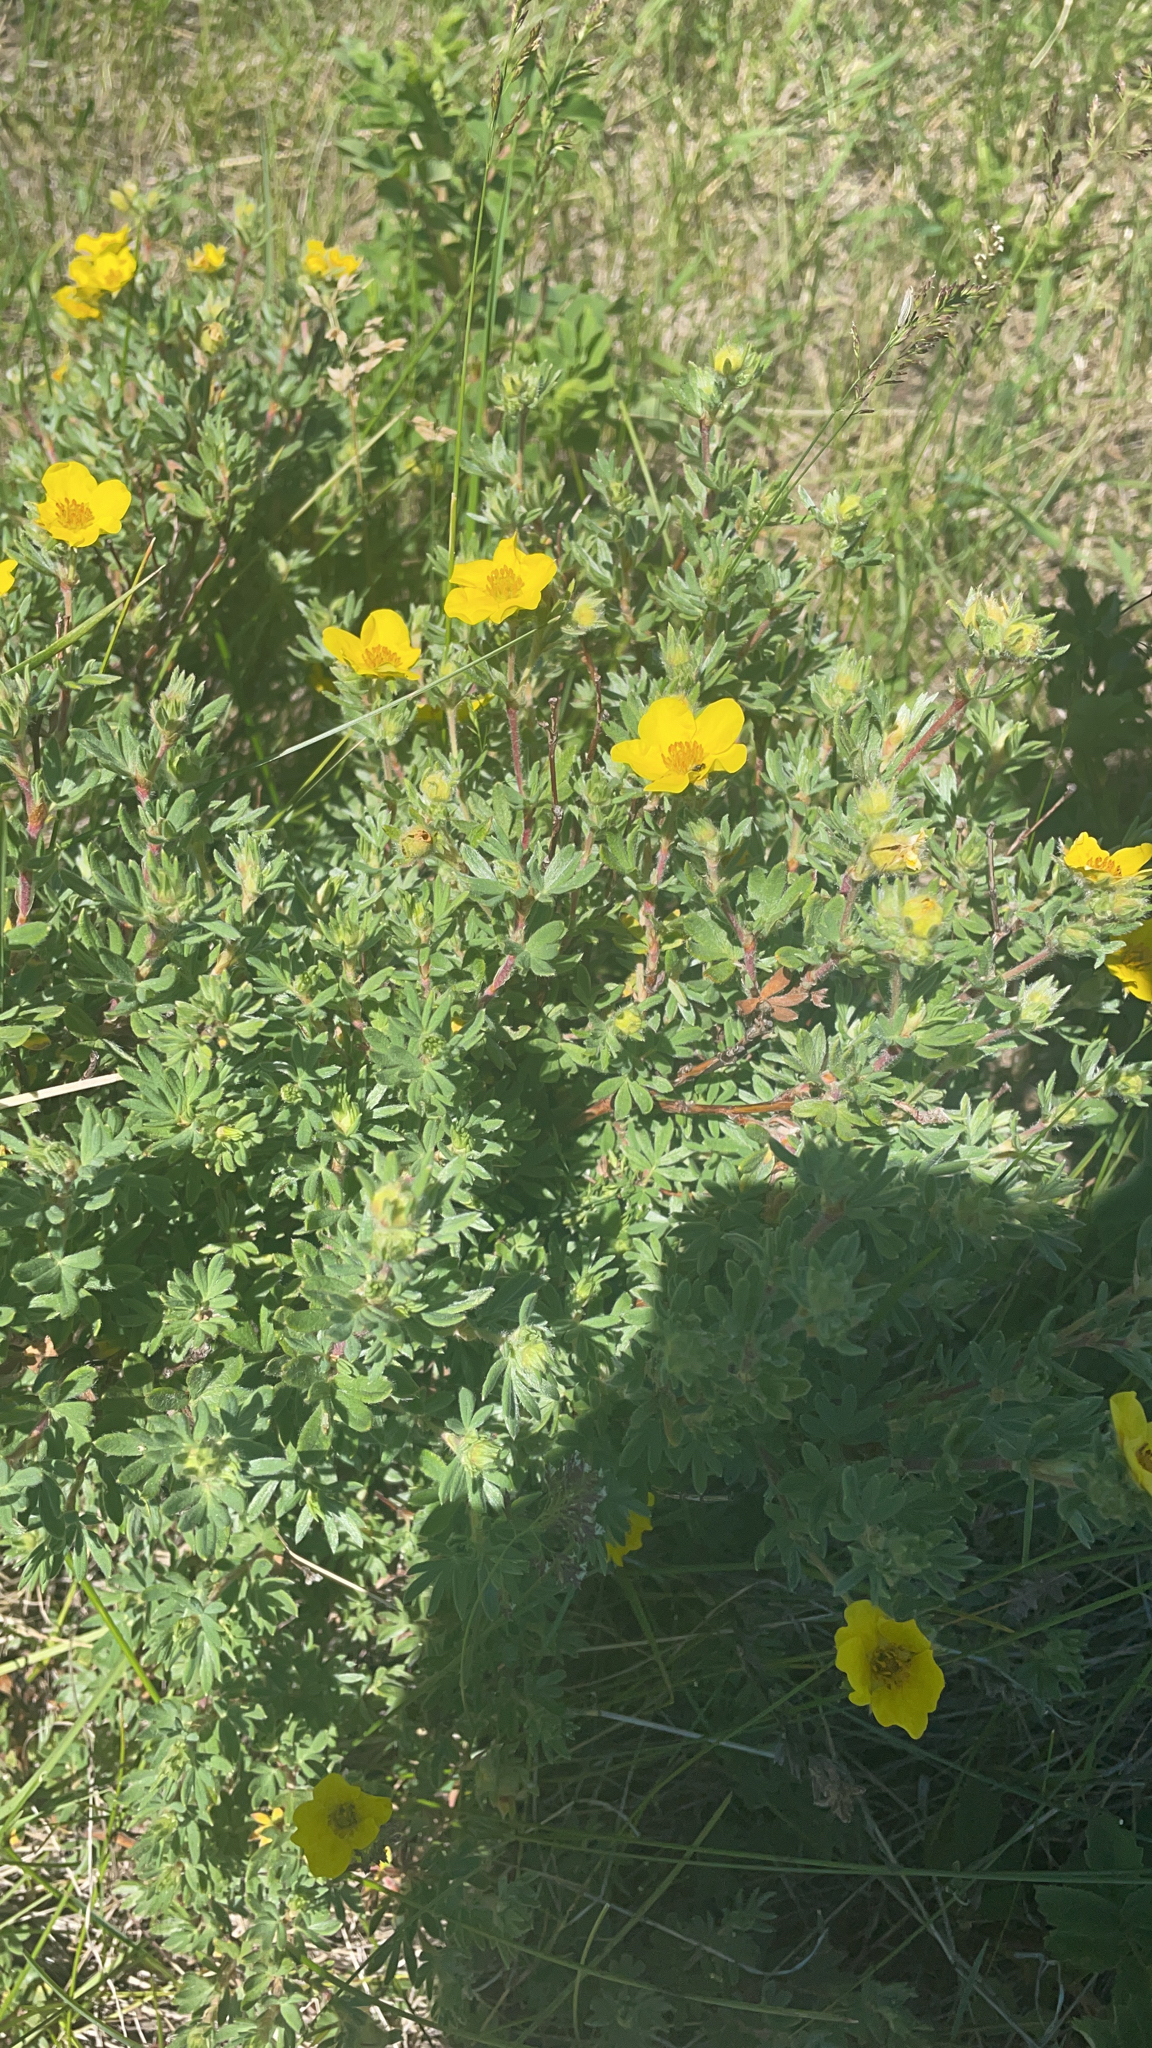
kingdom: Plantae
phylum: Tracheophyta
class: Magnoliopsida
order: Rosales
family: Rosaceae
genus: Dasiphora
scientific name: Dasiphora fruticosa
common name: Shrubby cinquefoil
